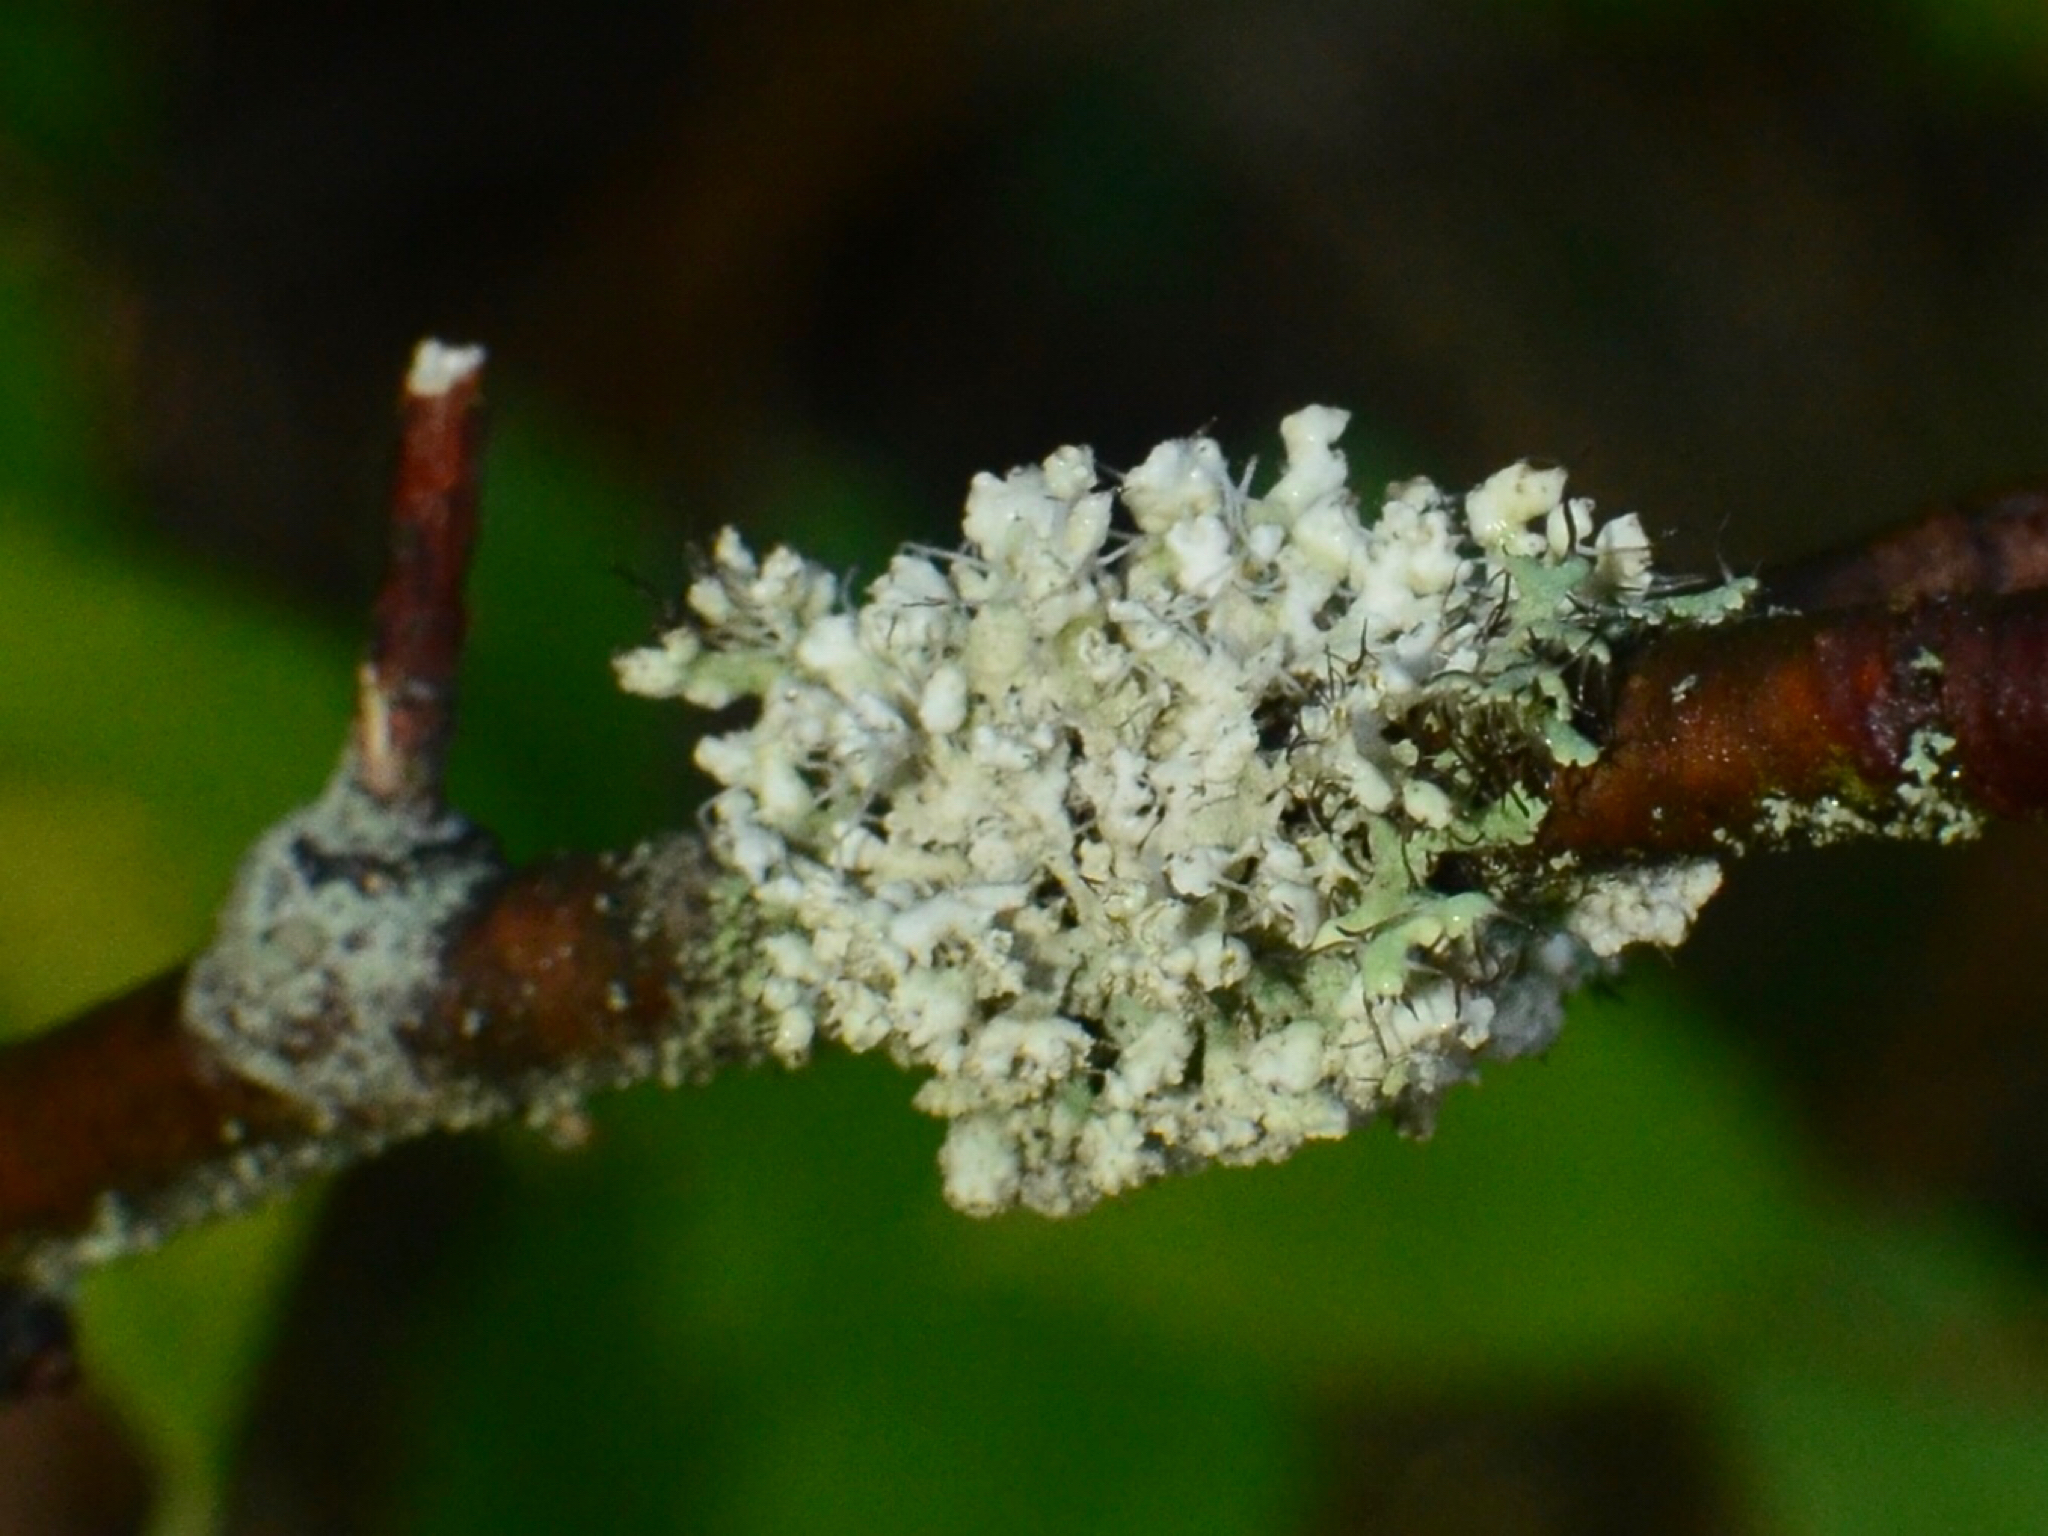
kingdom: Fungi
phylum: Ascomycota
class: Lecanoromycetes
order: Caliciales
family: Physciaceae
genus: Physcia
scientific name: Physcia adscendens
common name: Hooded rosette lichen
